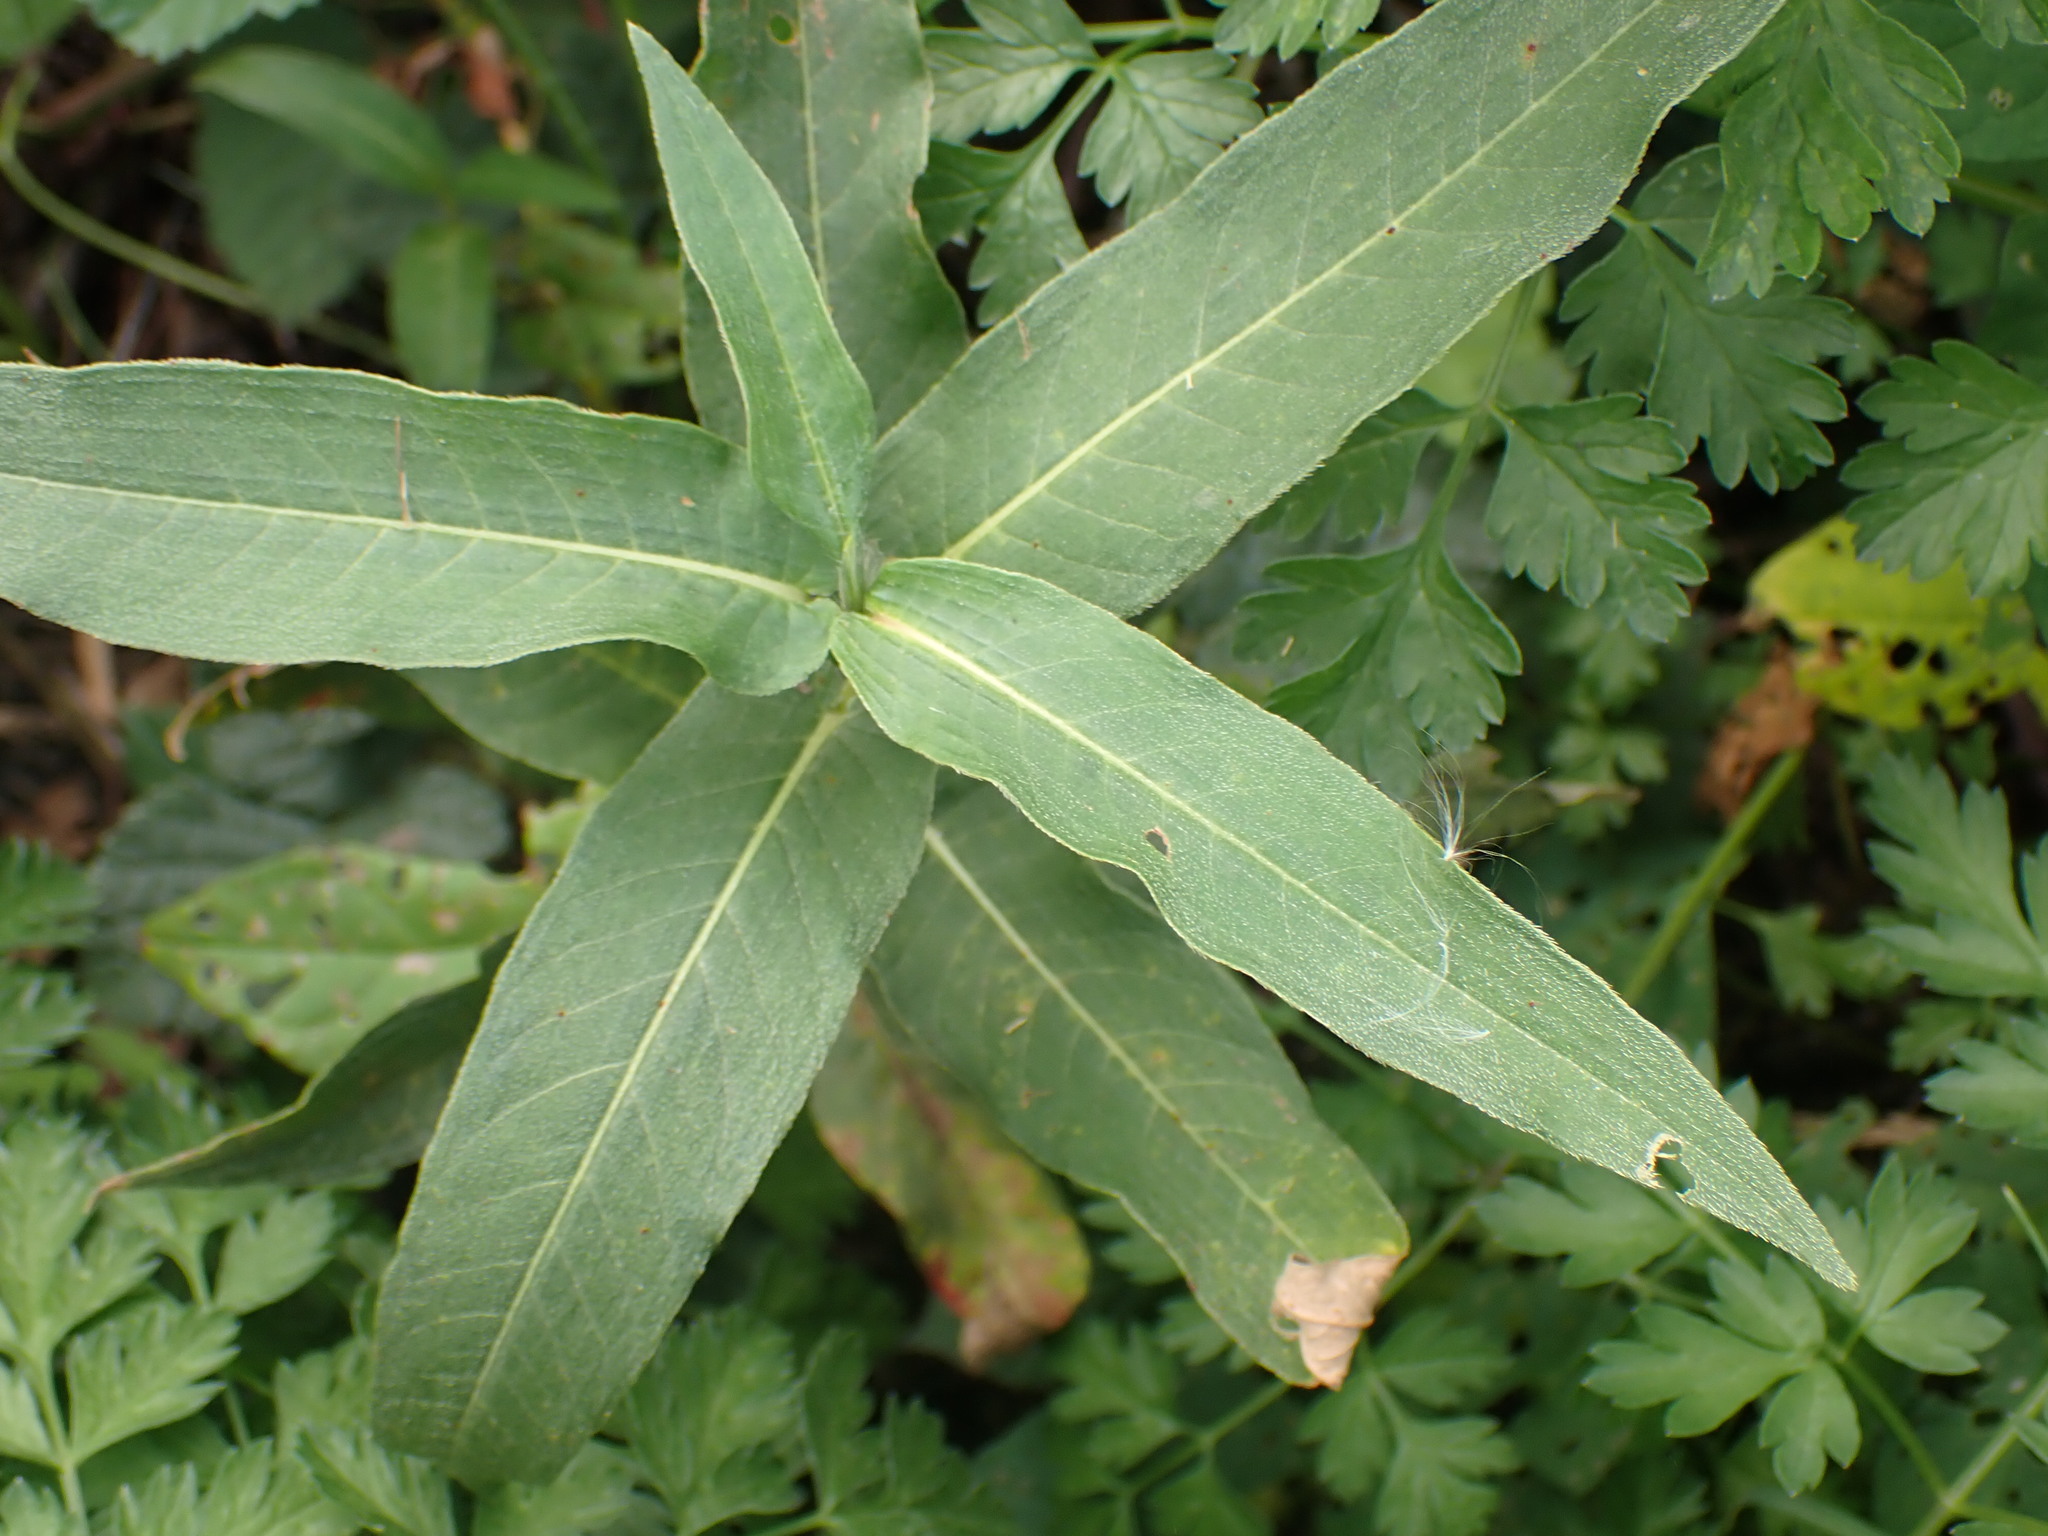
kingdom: Plantae
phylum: Tracheophyta
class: Magnoliopsida
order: Caryophyllales
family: Polygonaceae
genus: Persicaria
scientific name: Persicaria amphibia
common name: Amphibious bistort
